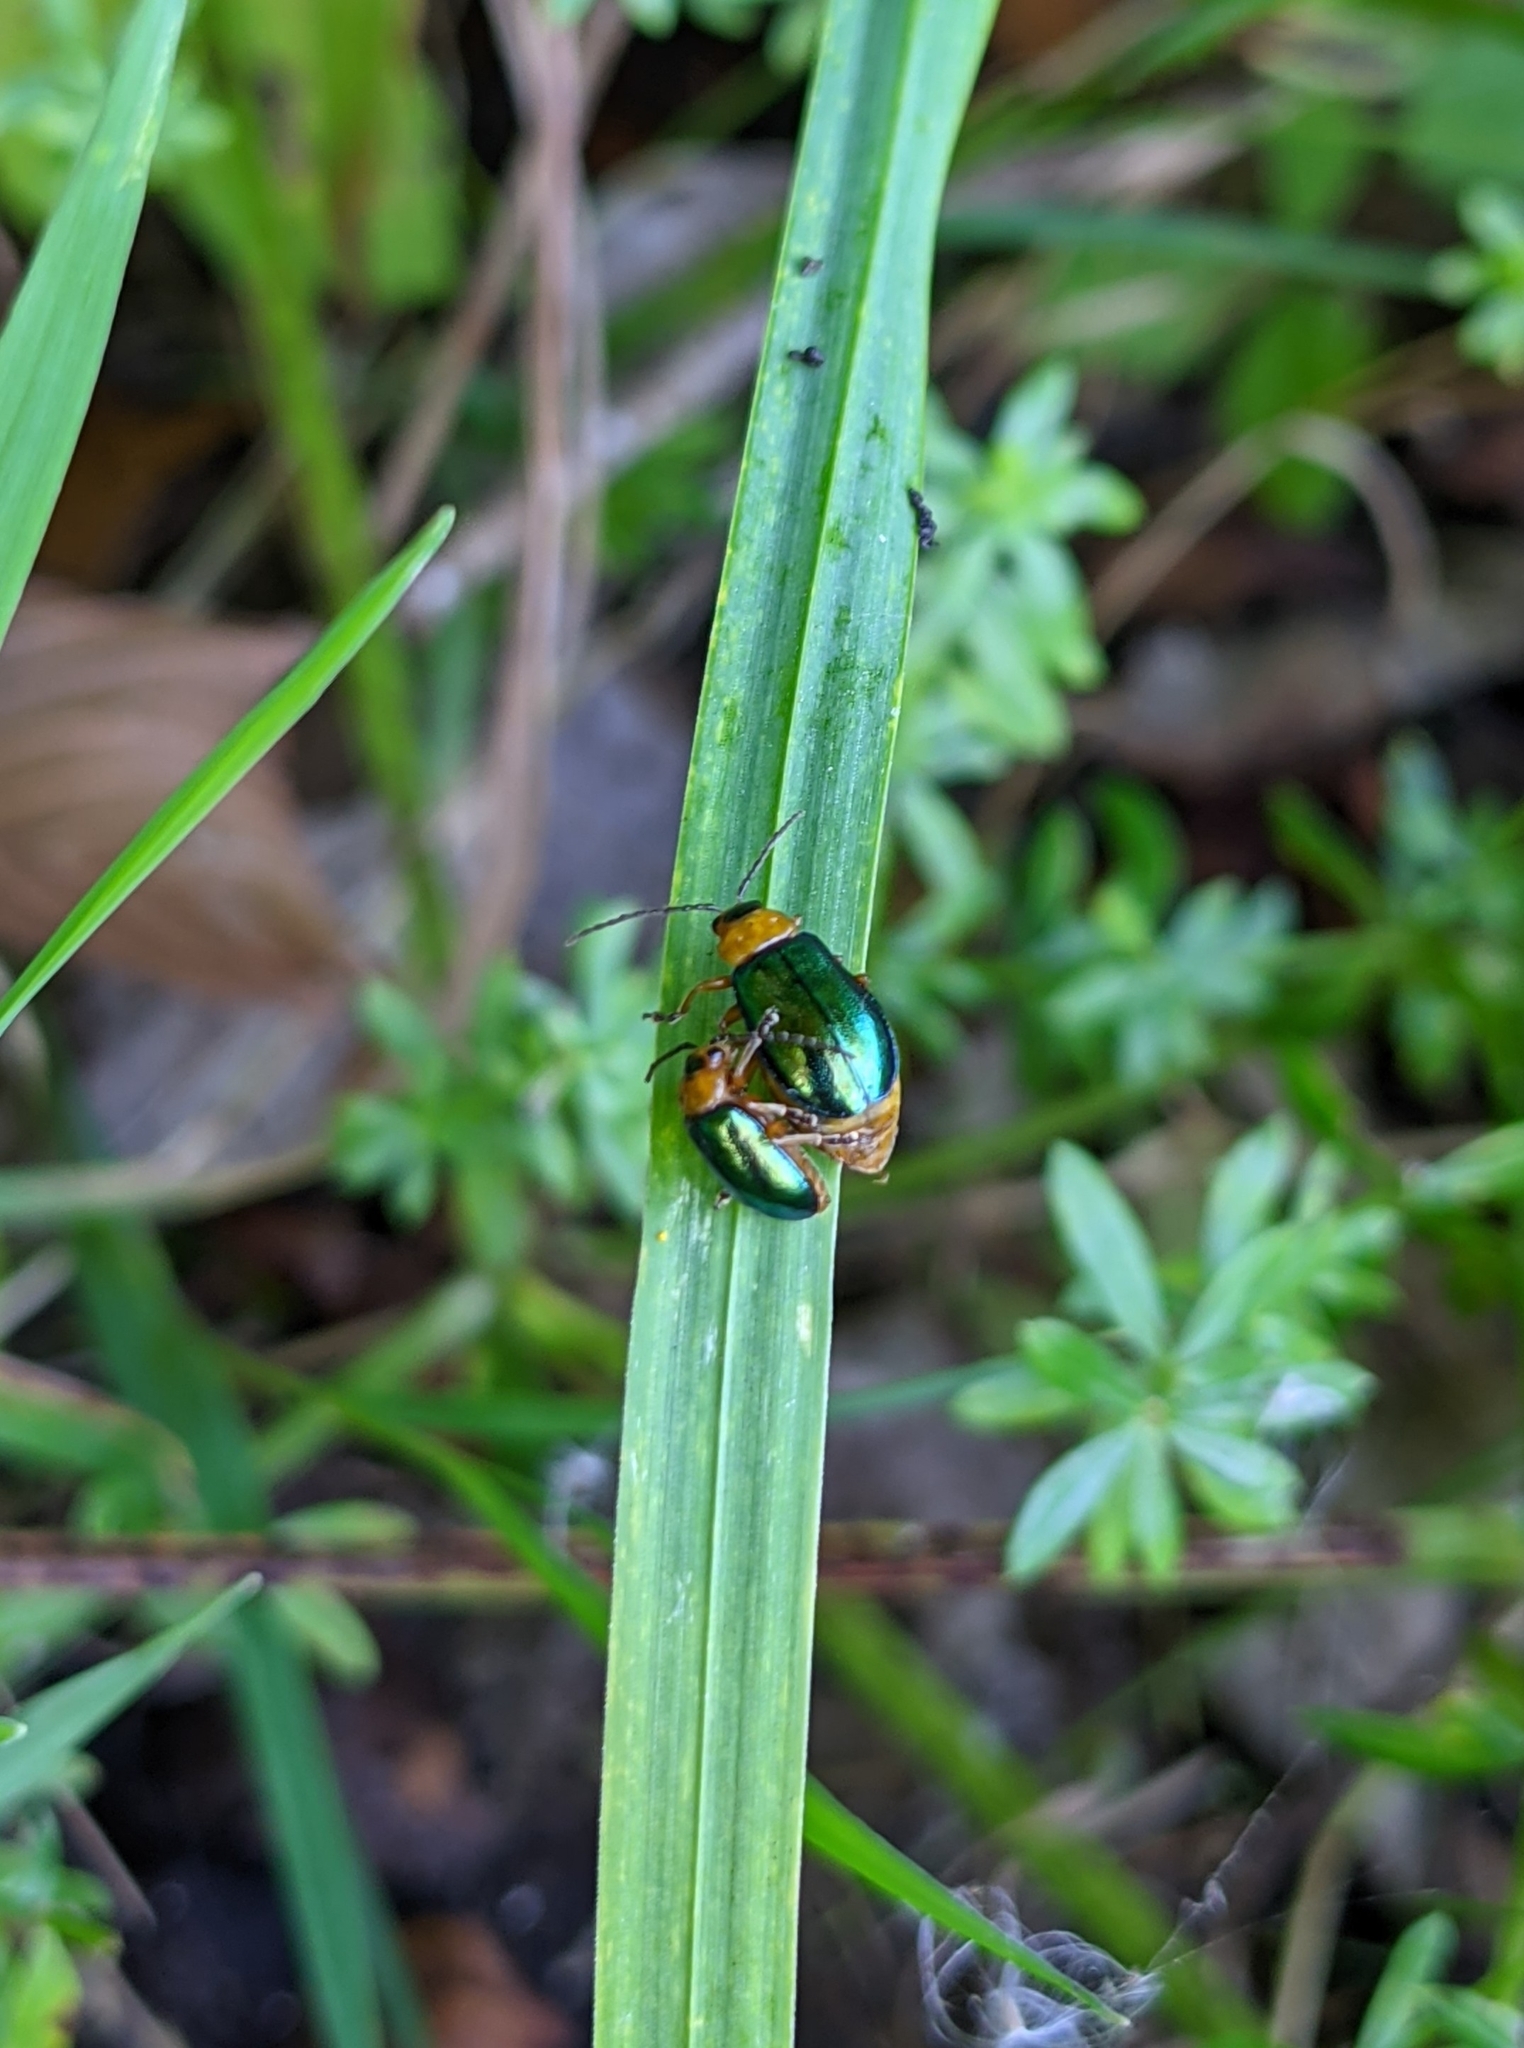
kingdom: Animalia
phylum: Arthropoda
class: Insecta
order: Coleoptera
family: Chrysomelidae
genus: Sermylassa
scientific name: Sermylassa halensis
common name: Leaf beetle
